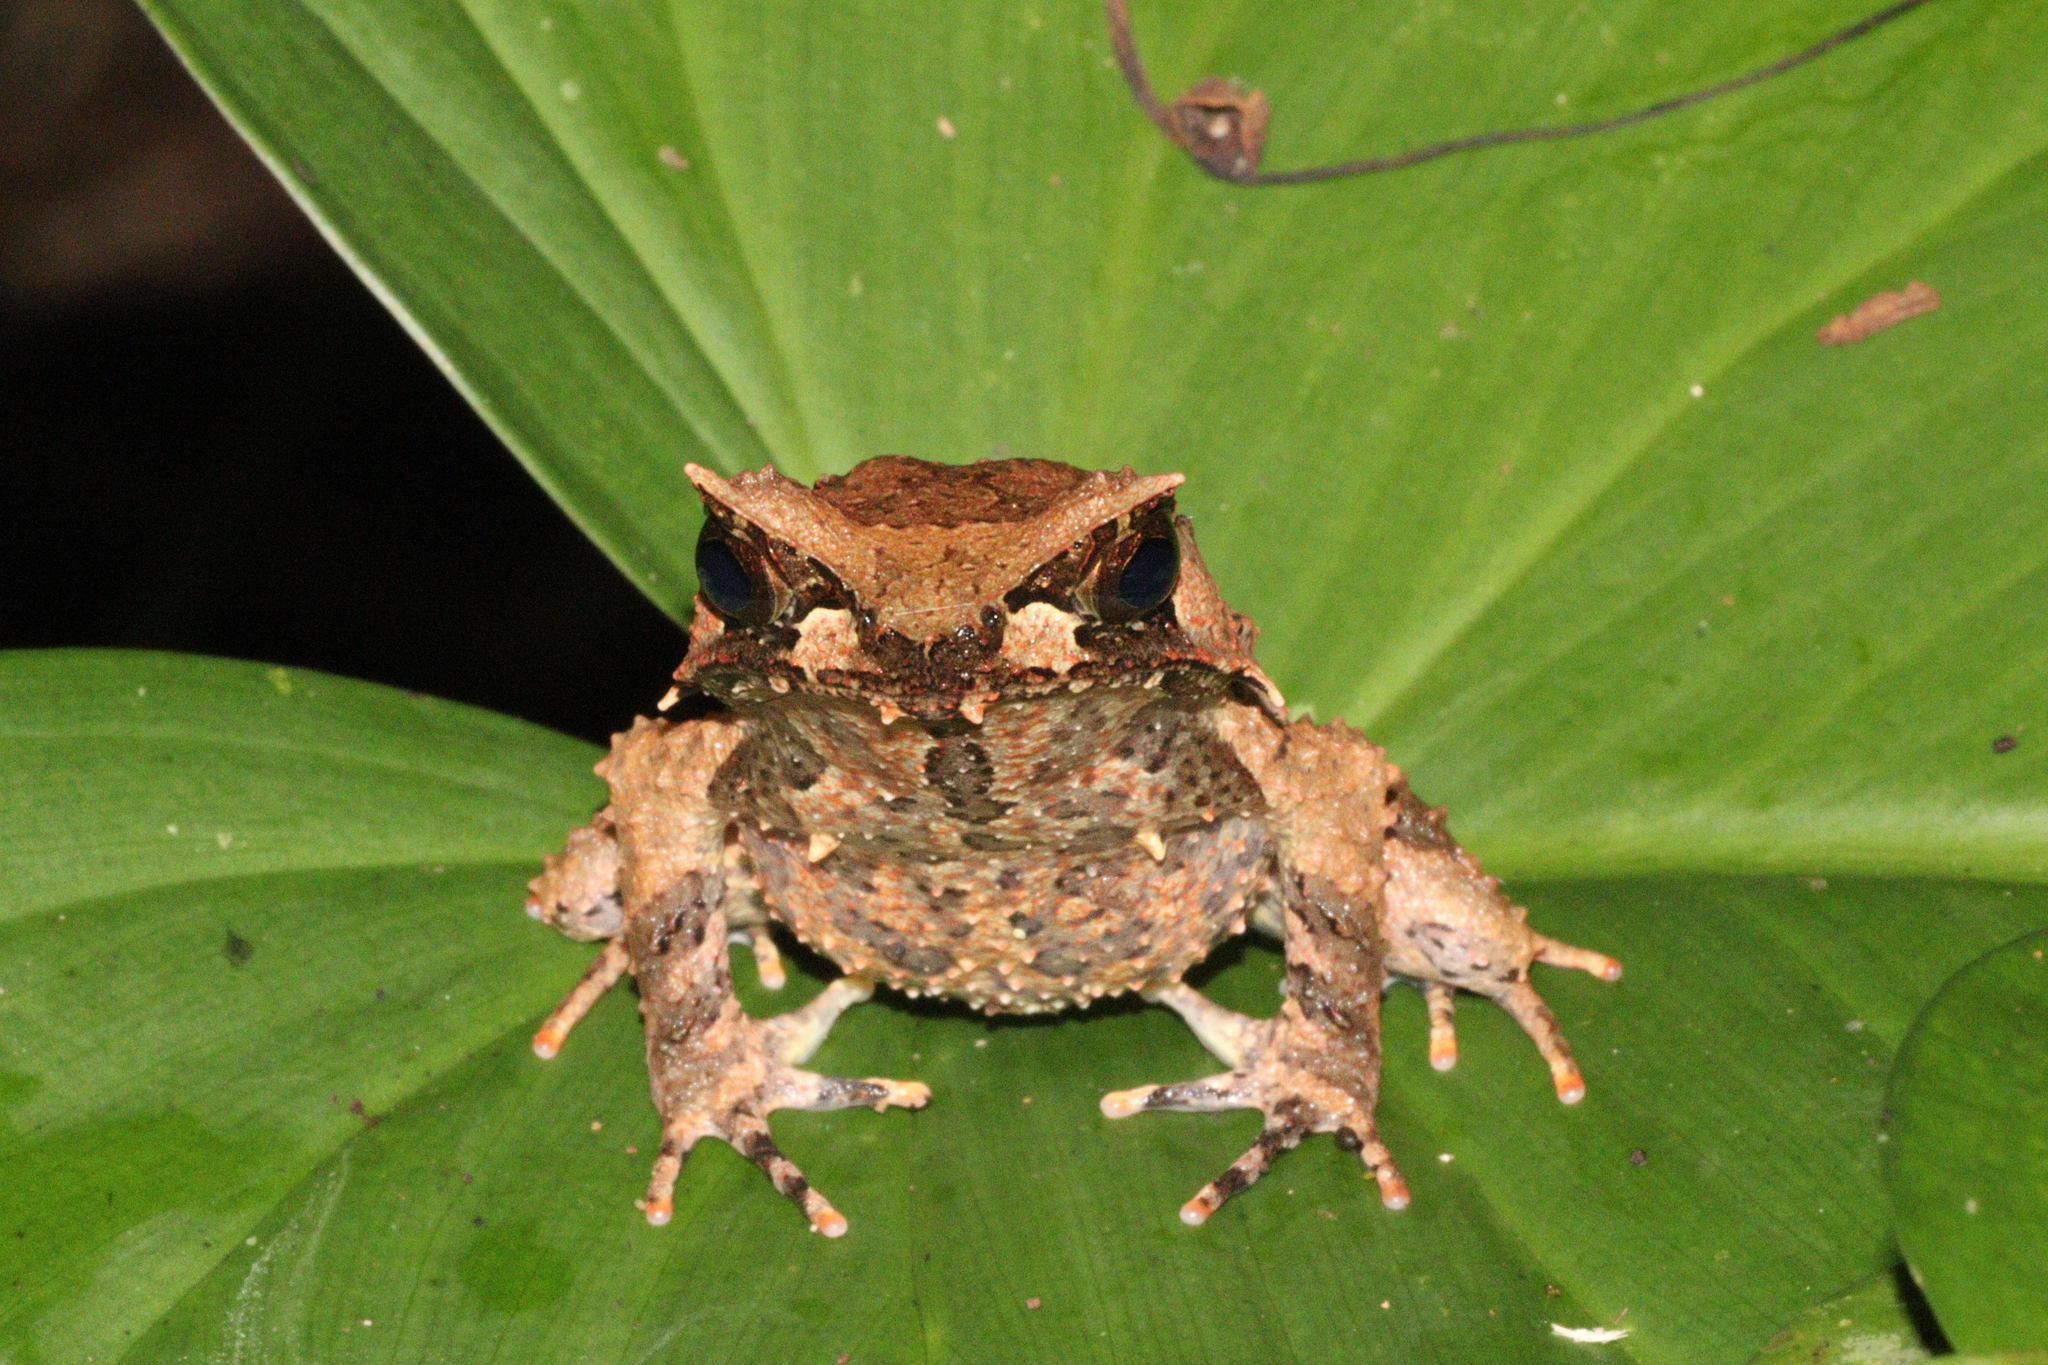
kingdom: Animalia
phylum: Chordata
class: Amphibia
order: Anura
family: Megophryidae
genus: Megophrys
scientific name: Megophrys
